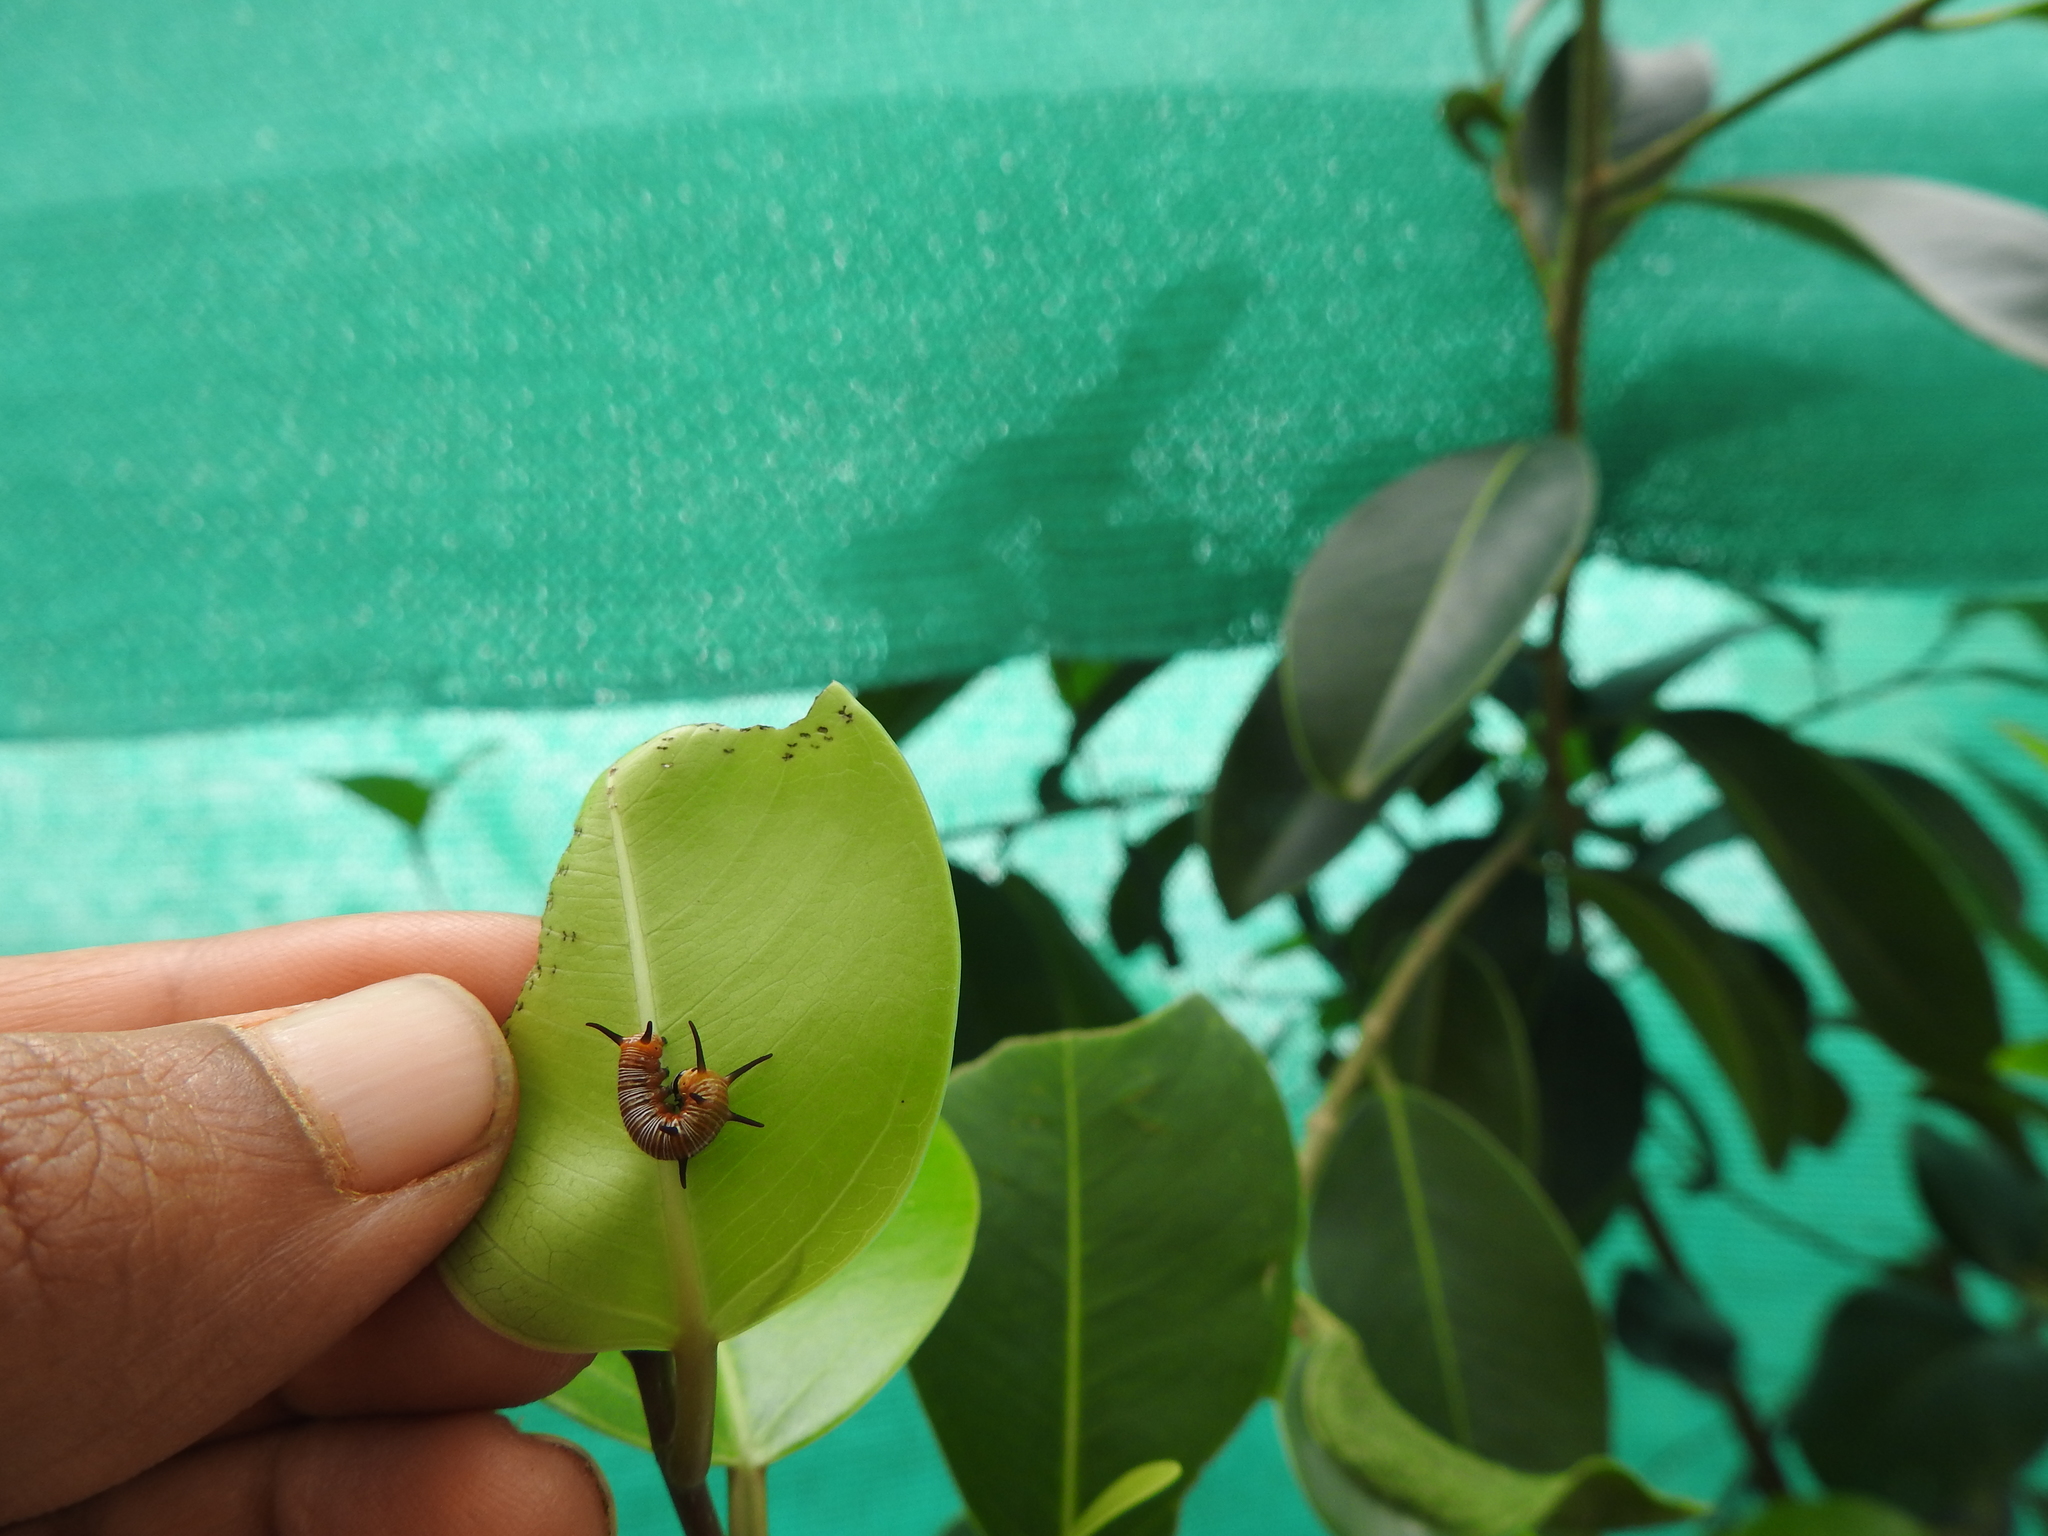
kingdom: Animalia
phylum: Arthropoda
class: Insecta
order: Lepidoptera
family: Nymphalidae
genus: Euploea
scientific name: Euploea core
